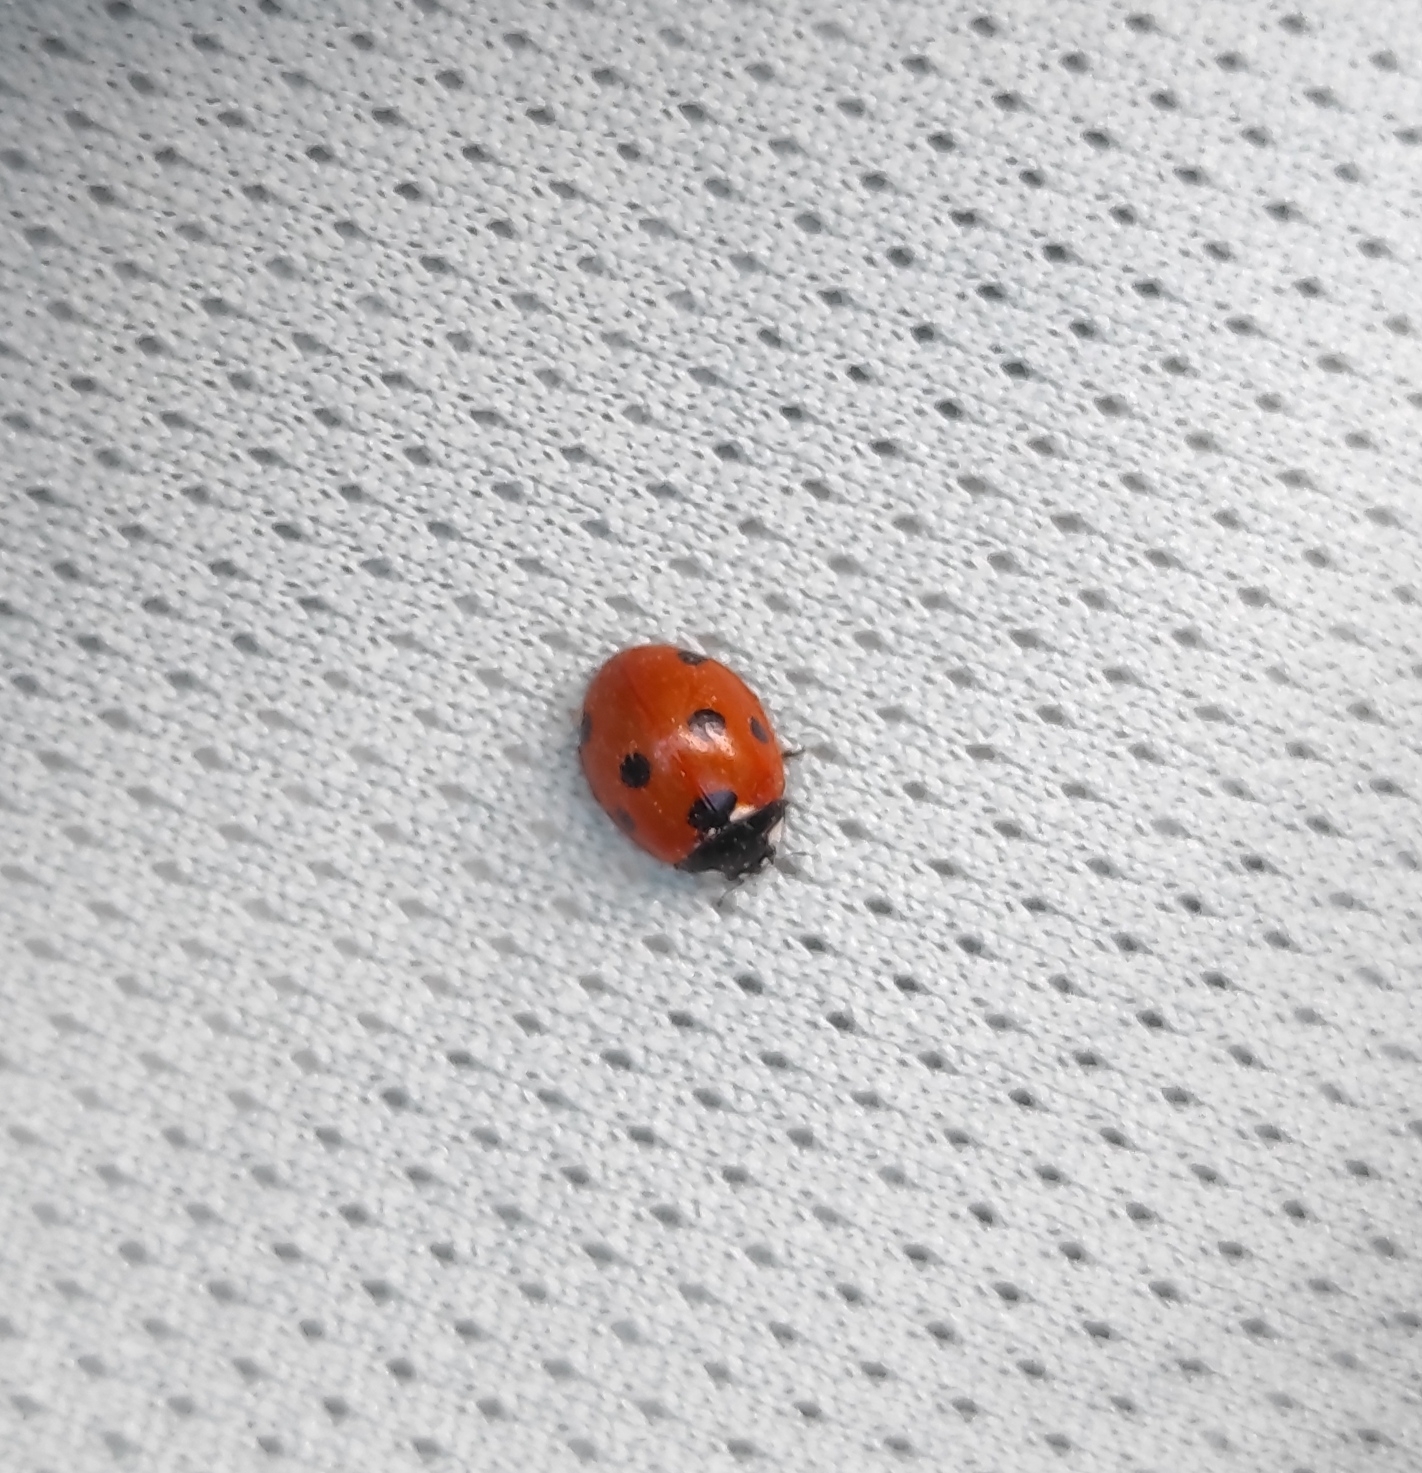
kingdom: Animalia
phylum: Arthropoda
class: Insecta
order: Coleoptera
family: Coccinellidae
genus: Coccinella
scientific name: Coccinella septempunctata
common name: Sevenspotted lady beetle
